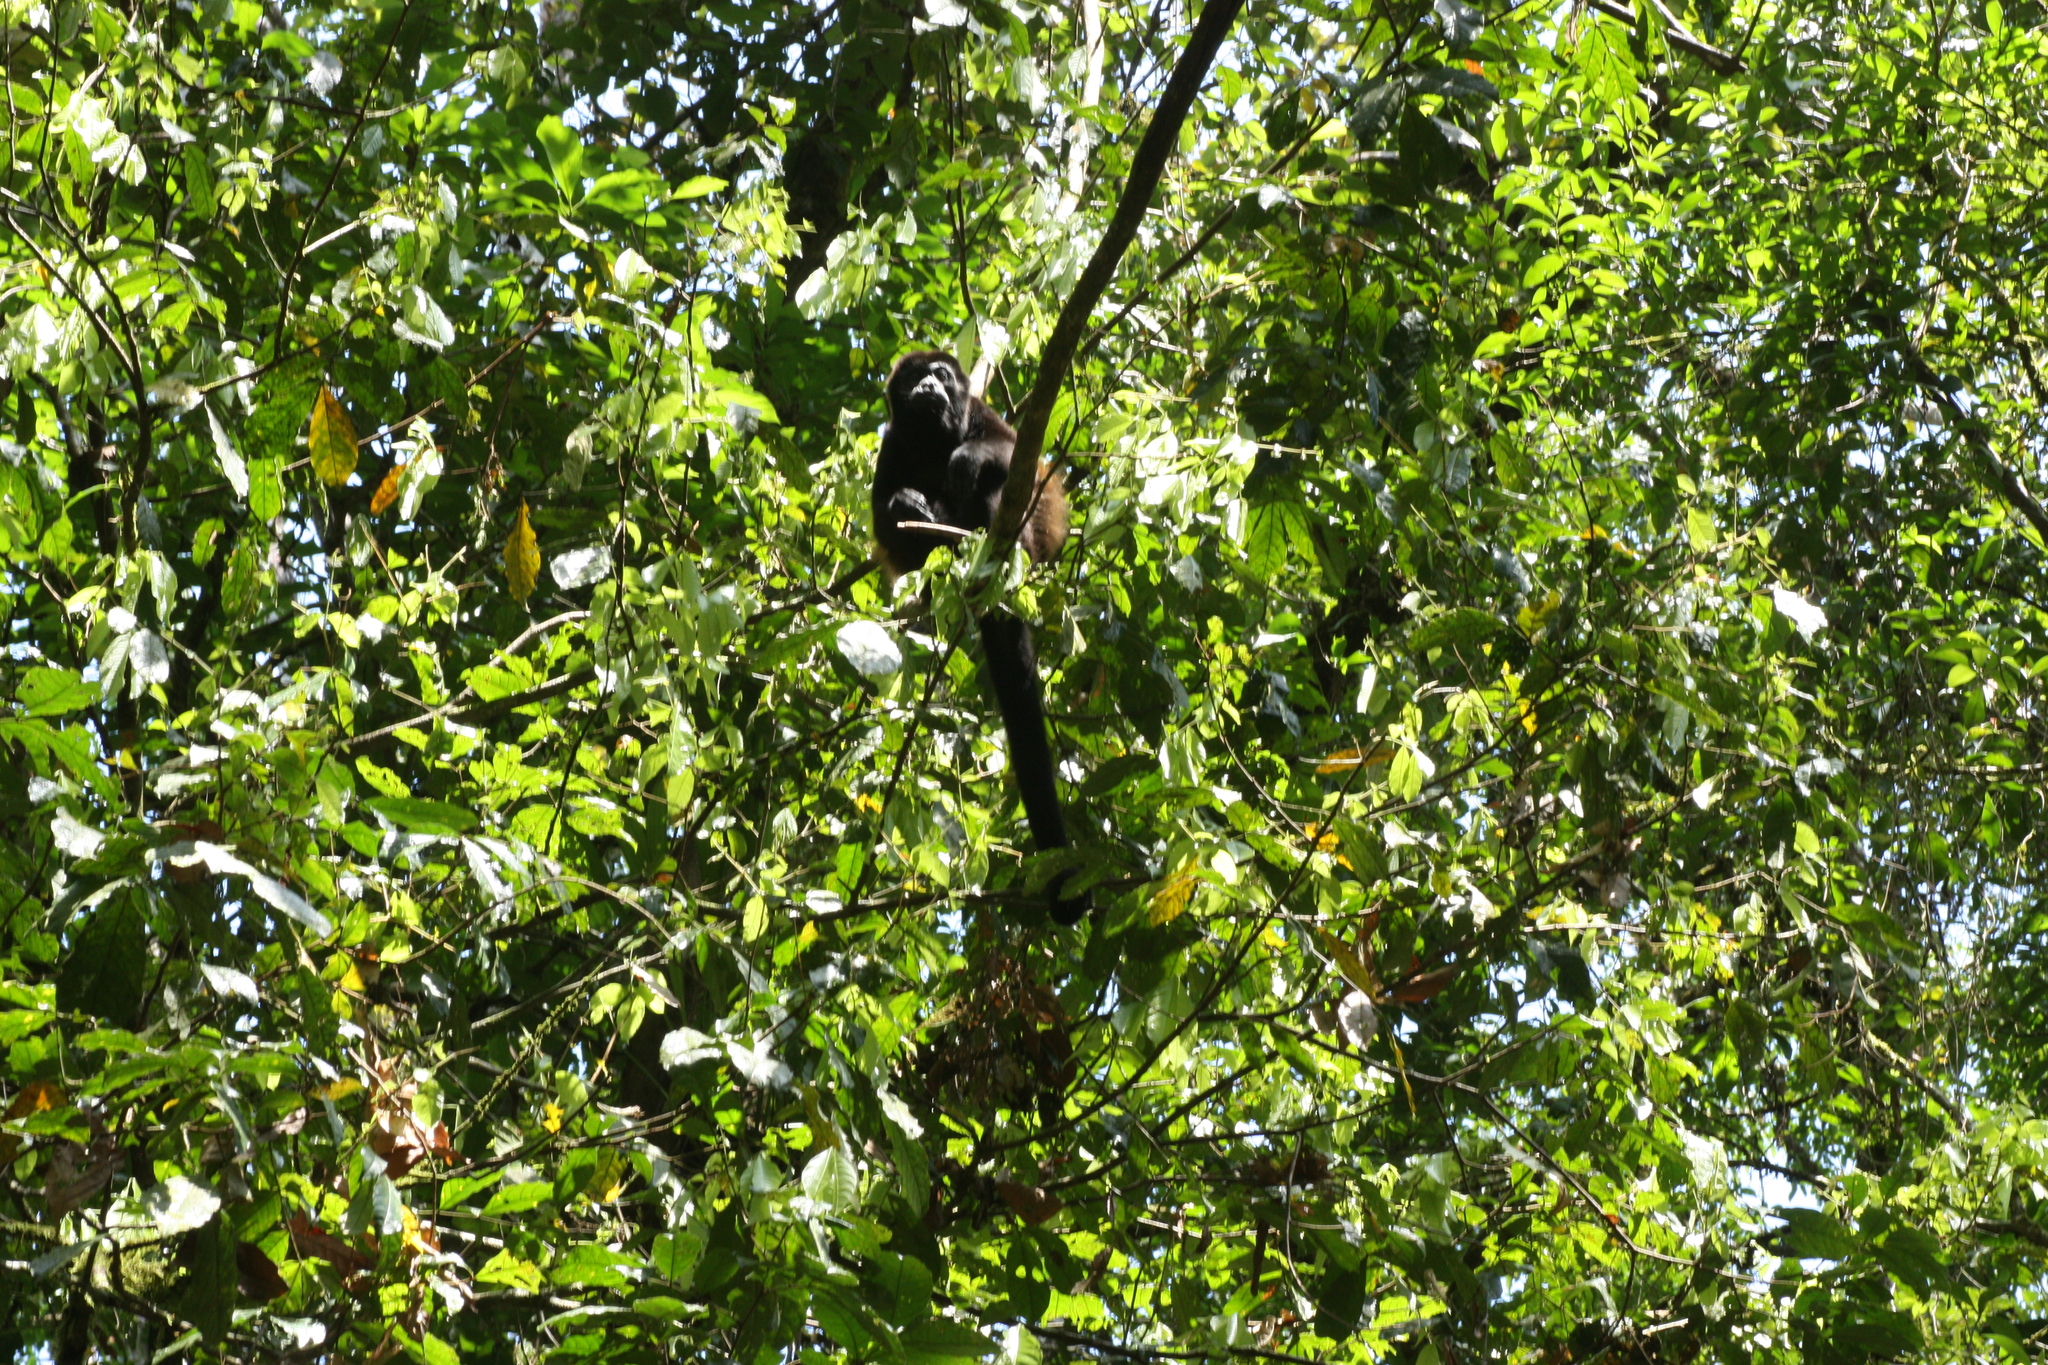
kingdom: Animalia
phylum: Chordata
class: Mammalia
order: Primates
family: Atelidae
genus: Alouatta
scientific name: Alouatta palliata
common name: Mantled howler
